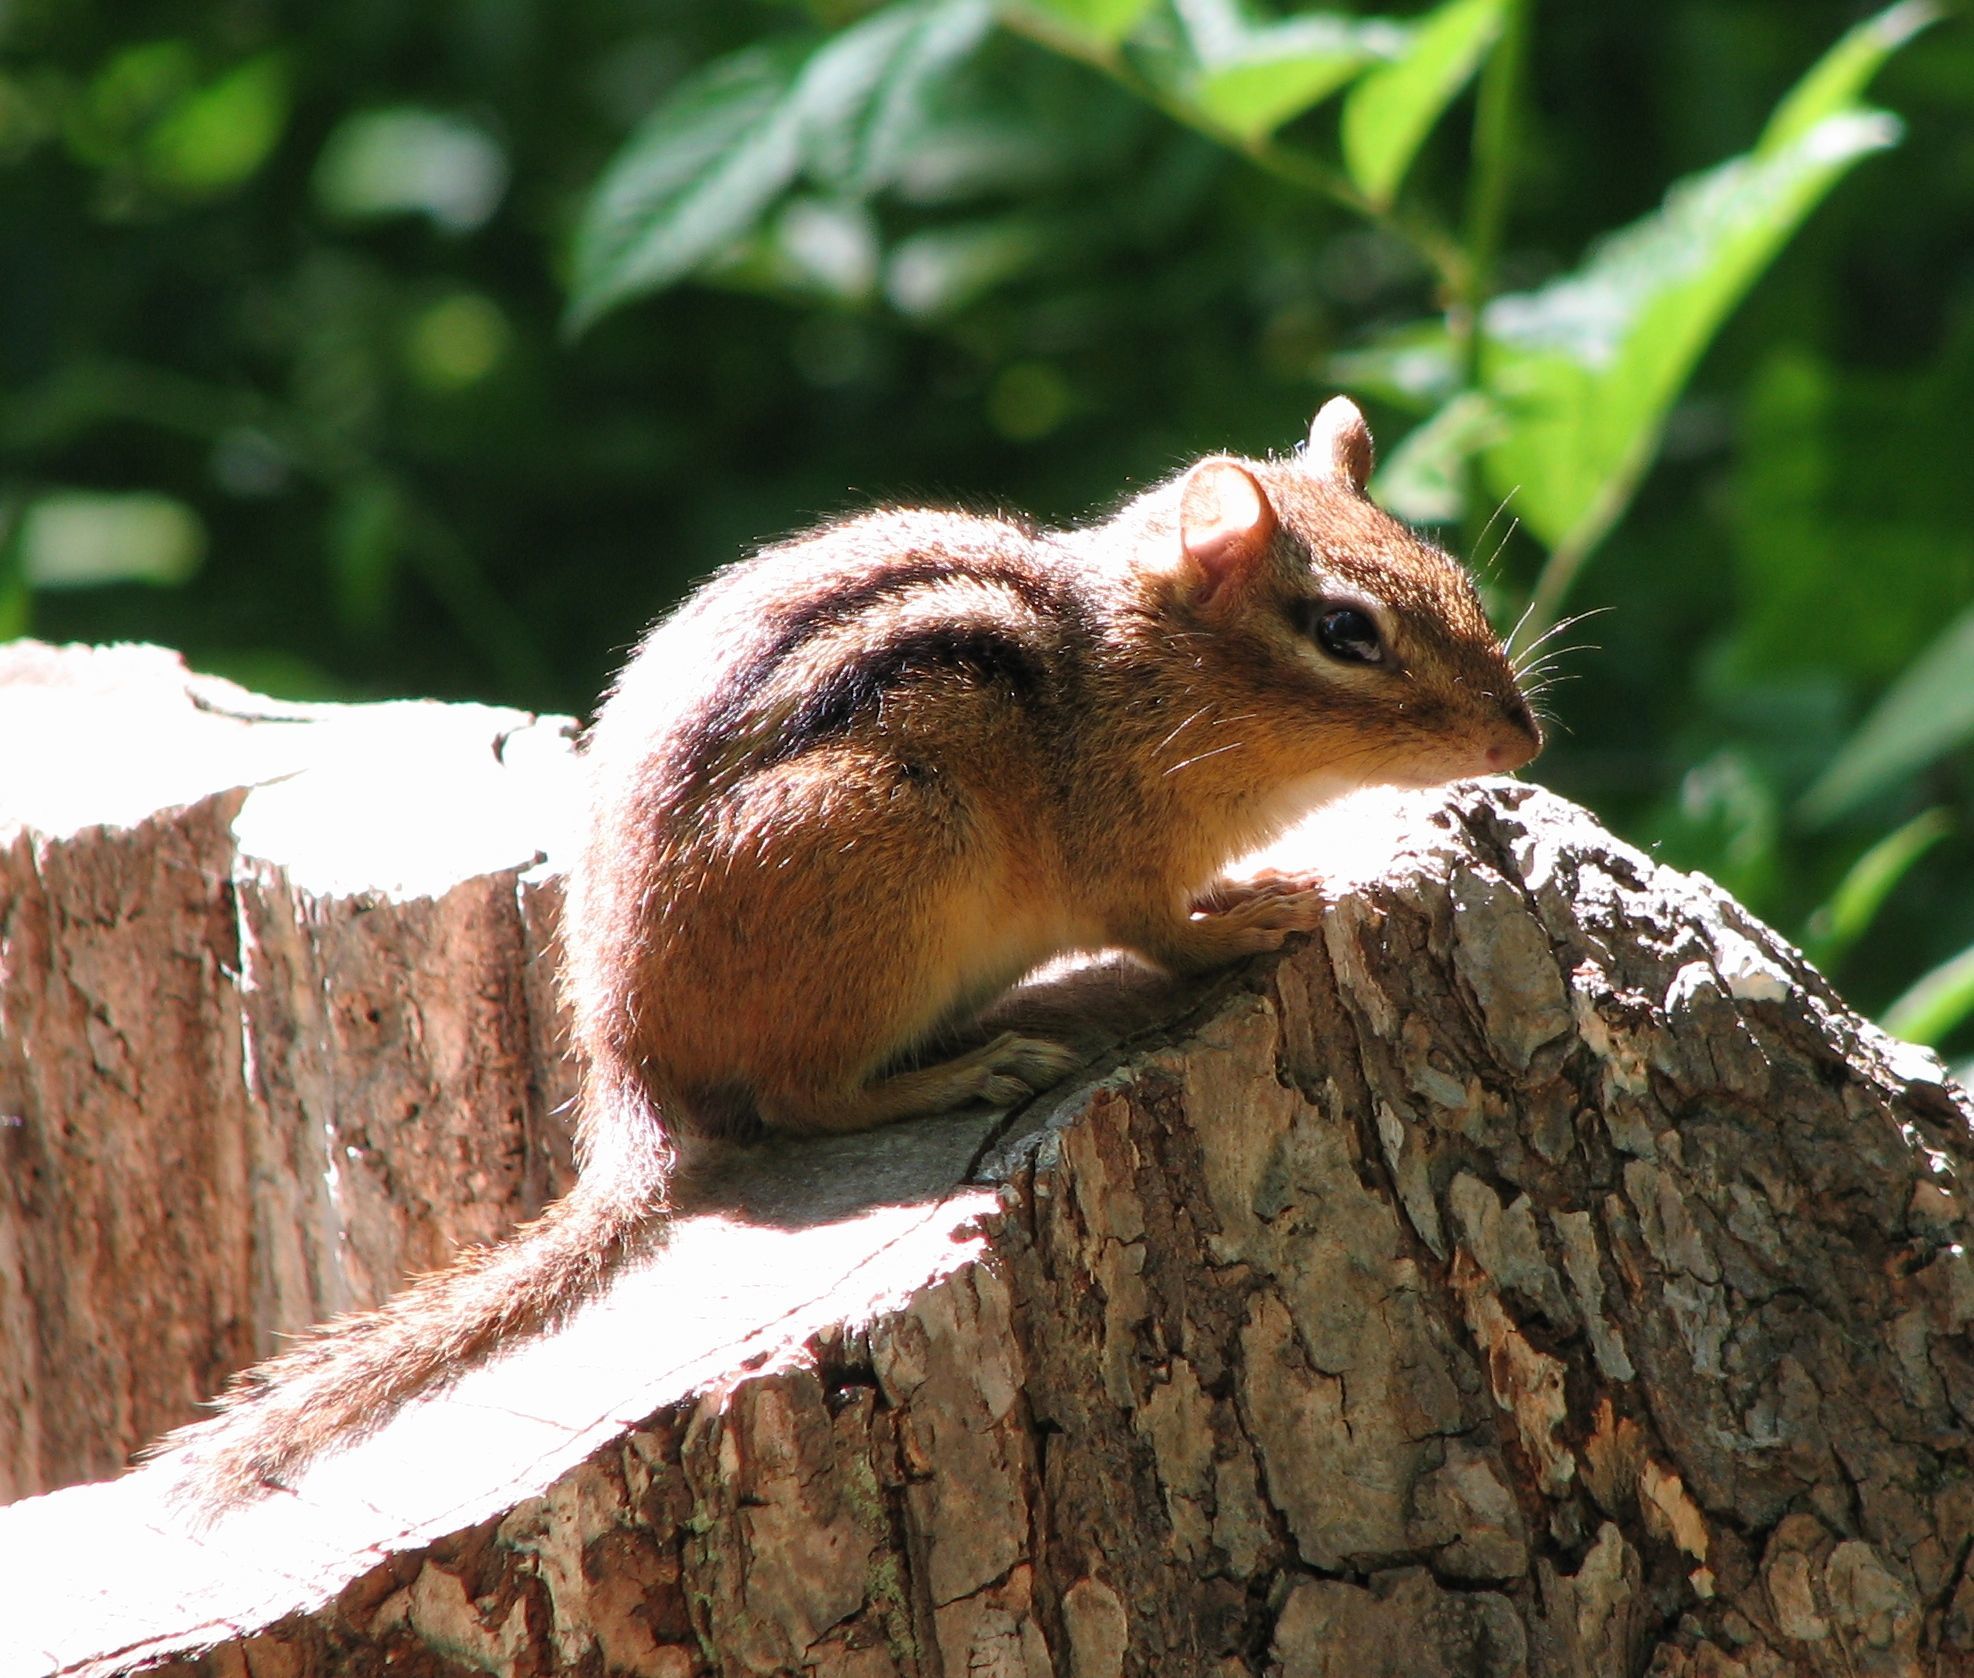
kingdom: Animalia
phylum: Chordata
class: Mammalia
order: Rodentia
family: Sciuridae
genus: Tamias
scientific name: Tamias striatus
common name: Eastern chipmunk
